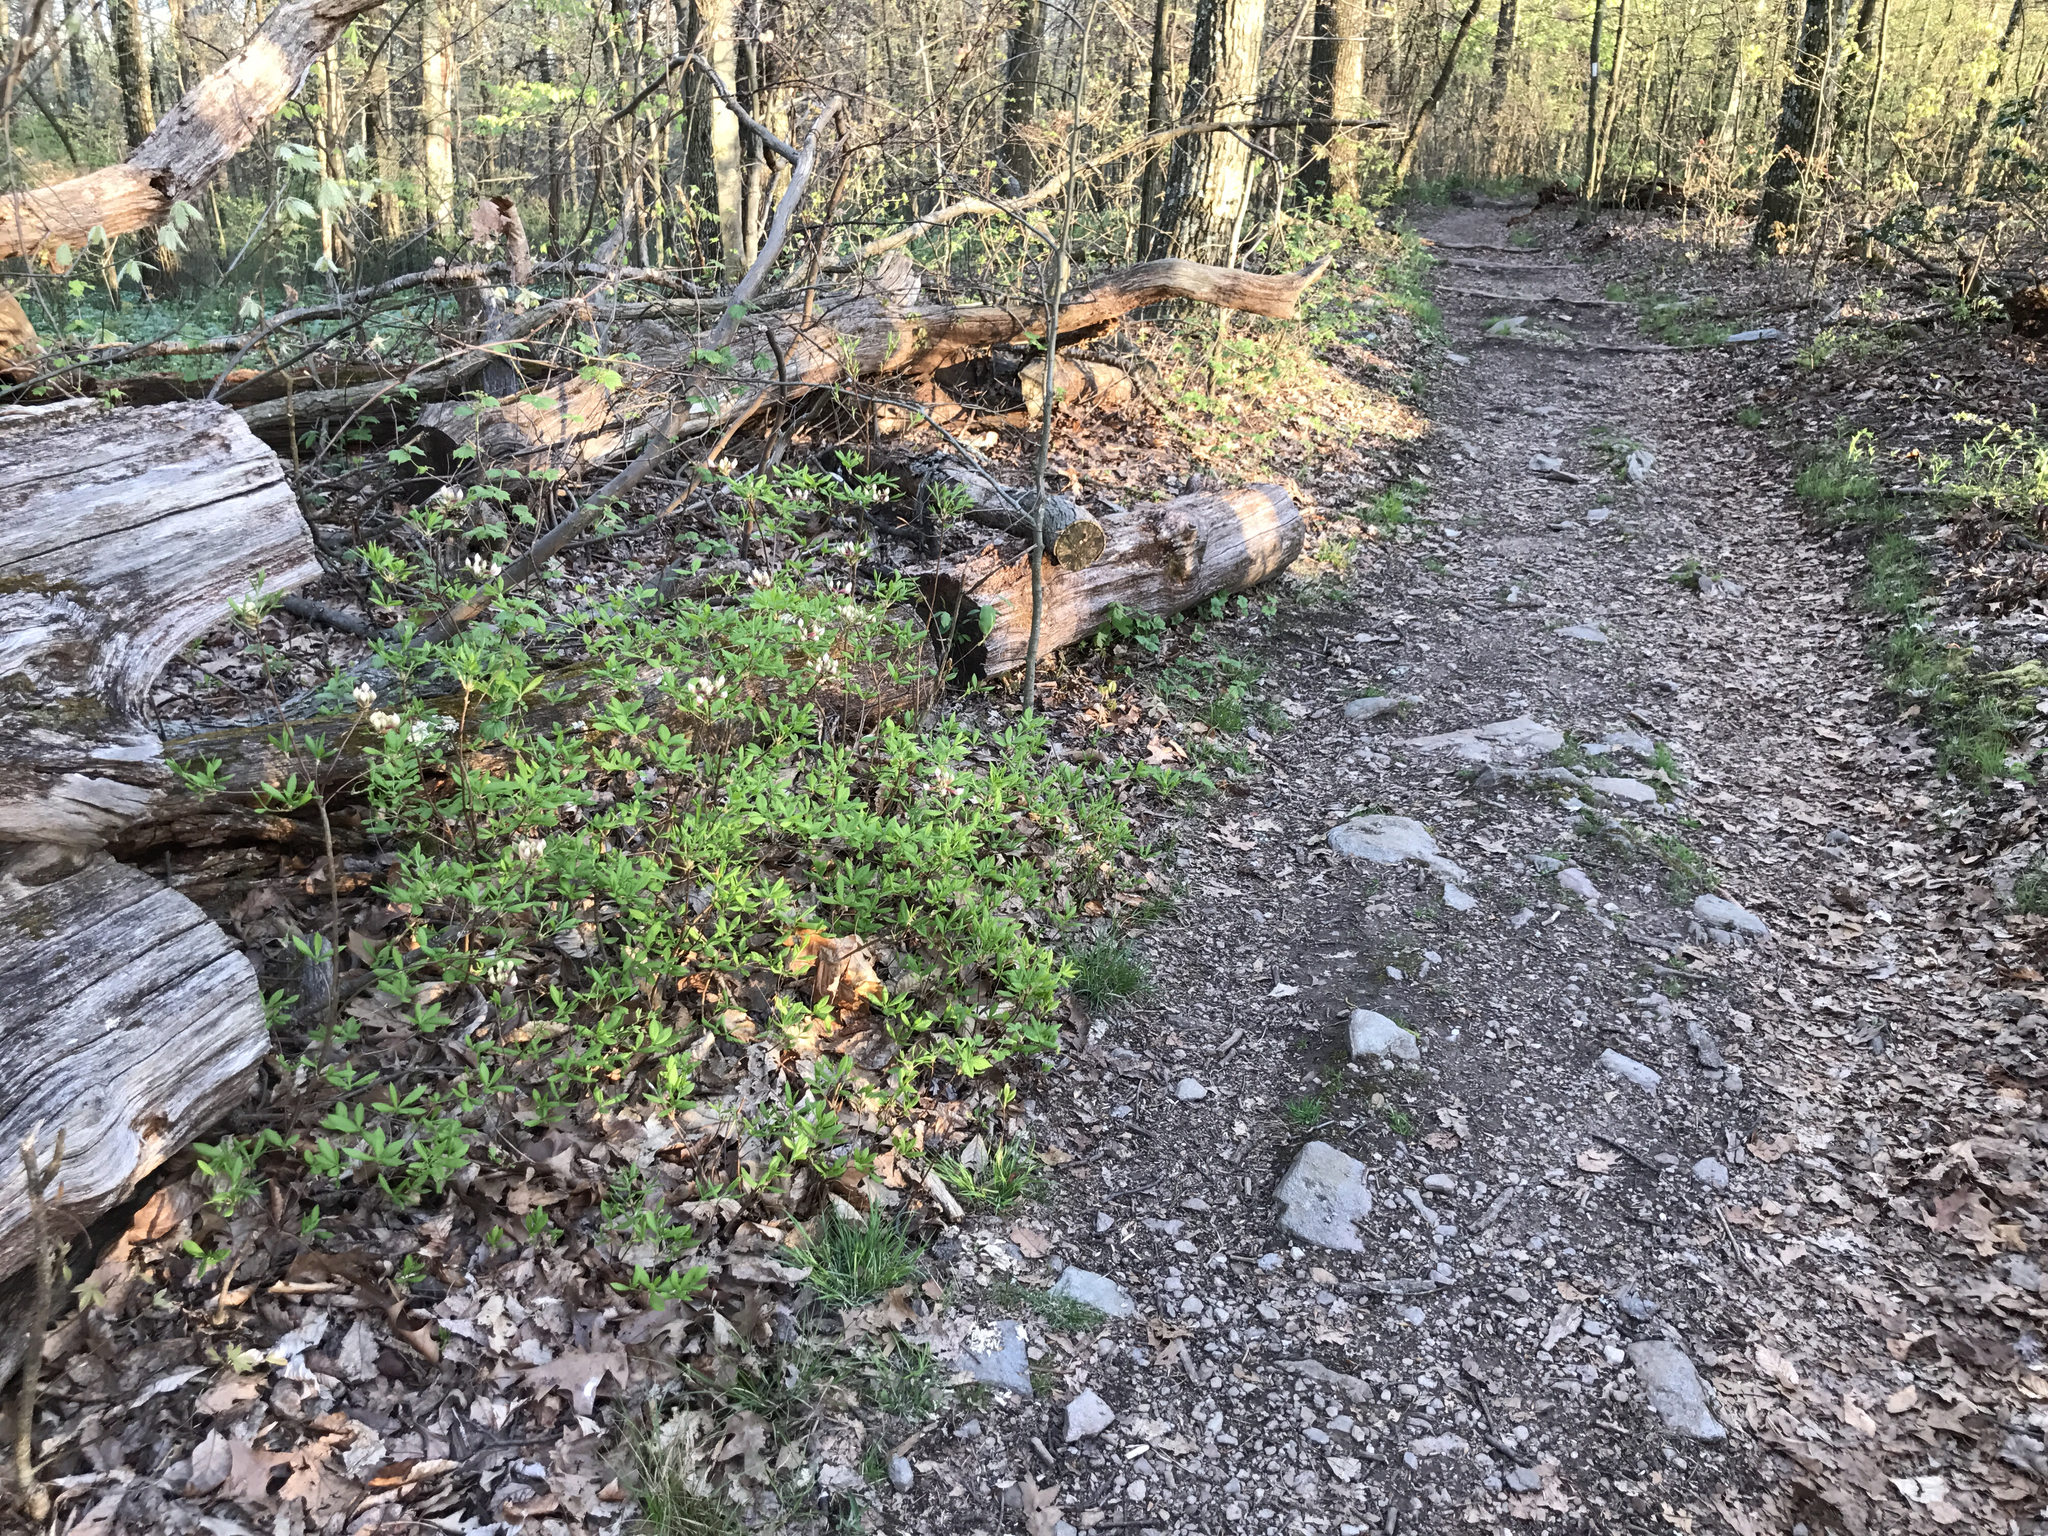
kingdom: Plantae
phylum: Tracheophyta
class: Magnoliopsida
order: Ericales
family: Ericaceae
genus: Rhododendron
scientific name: Rhododendron periclymenoides
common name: Election-pink
